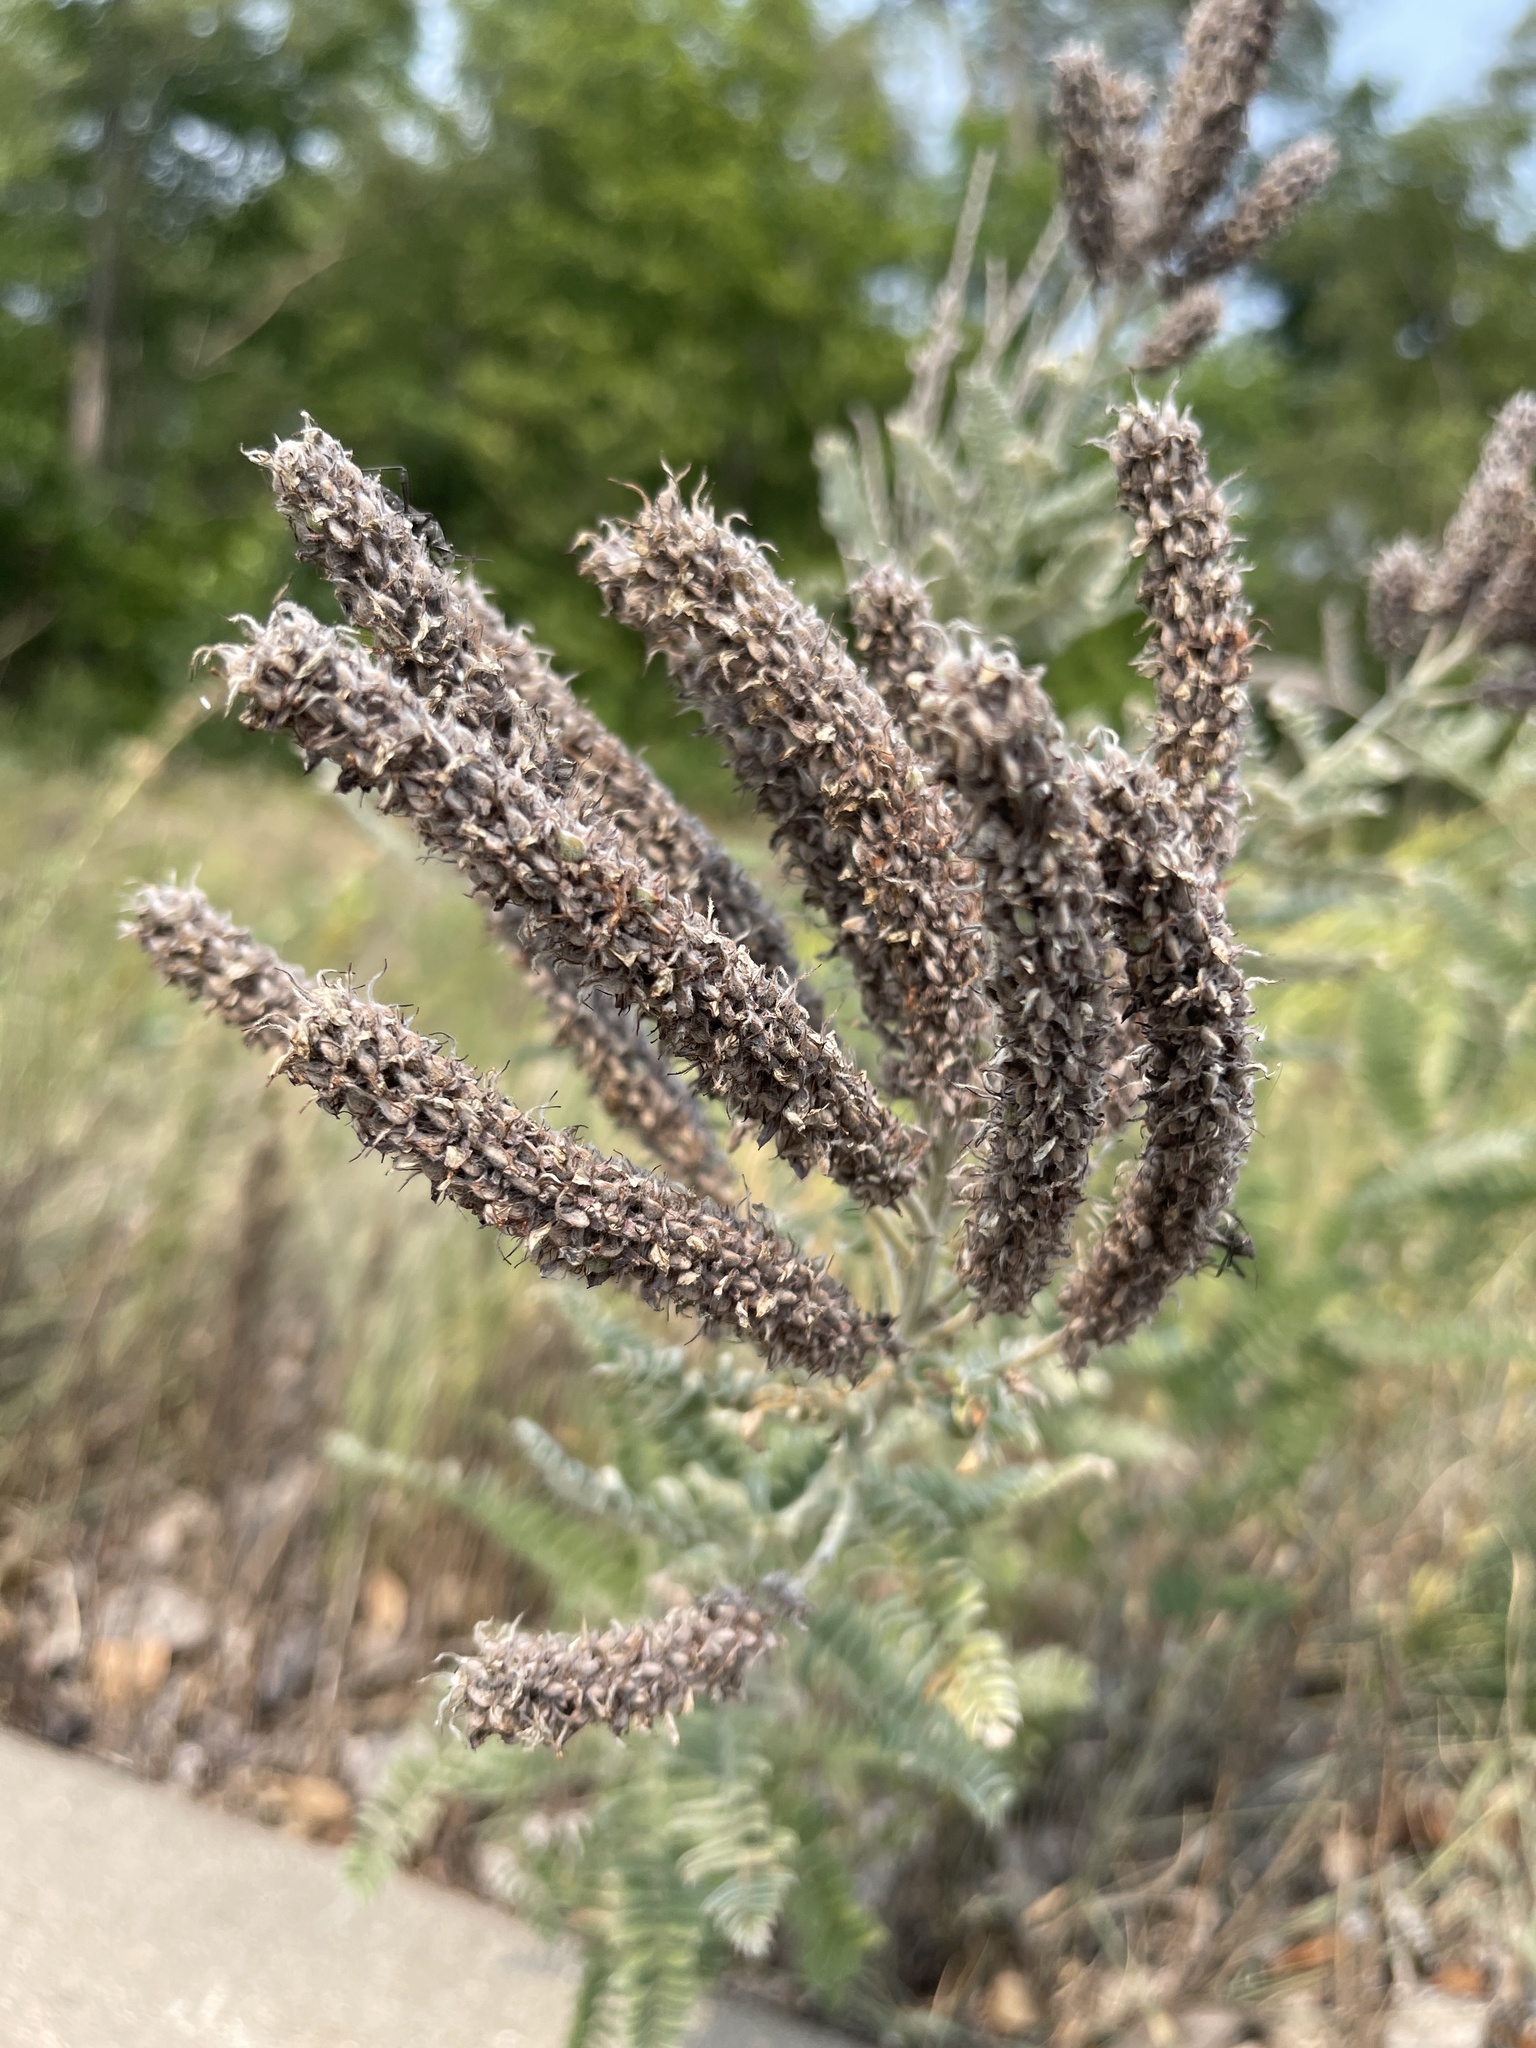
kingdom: Plantae
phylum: Tracheophyta
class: Magnoliopsida
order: Fabales
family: Fabaceae
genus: Amorpha
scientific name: Amorpha canescens
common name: Leadplant
